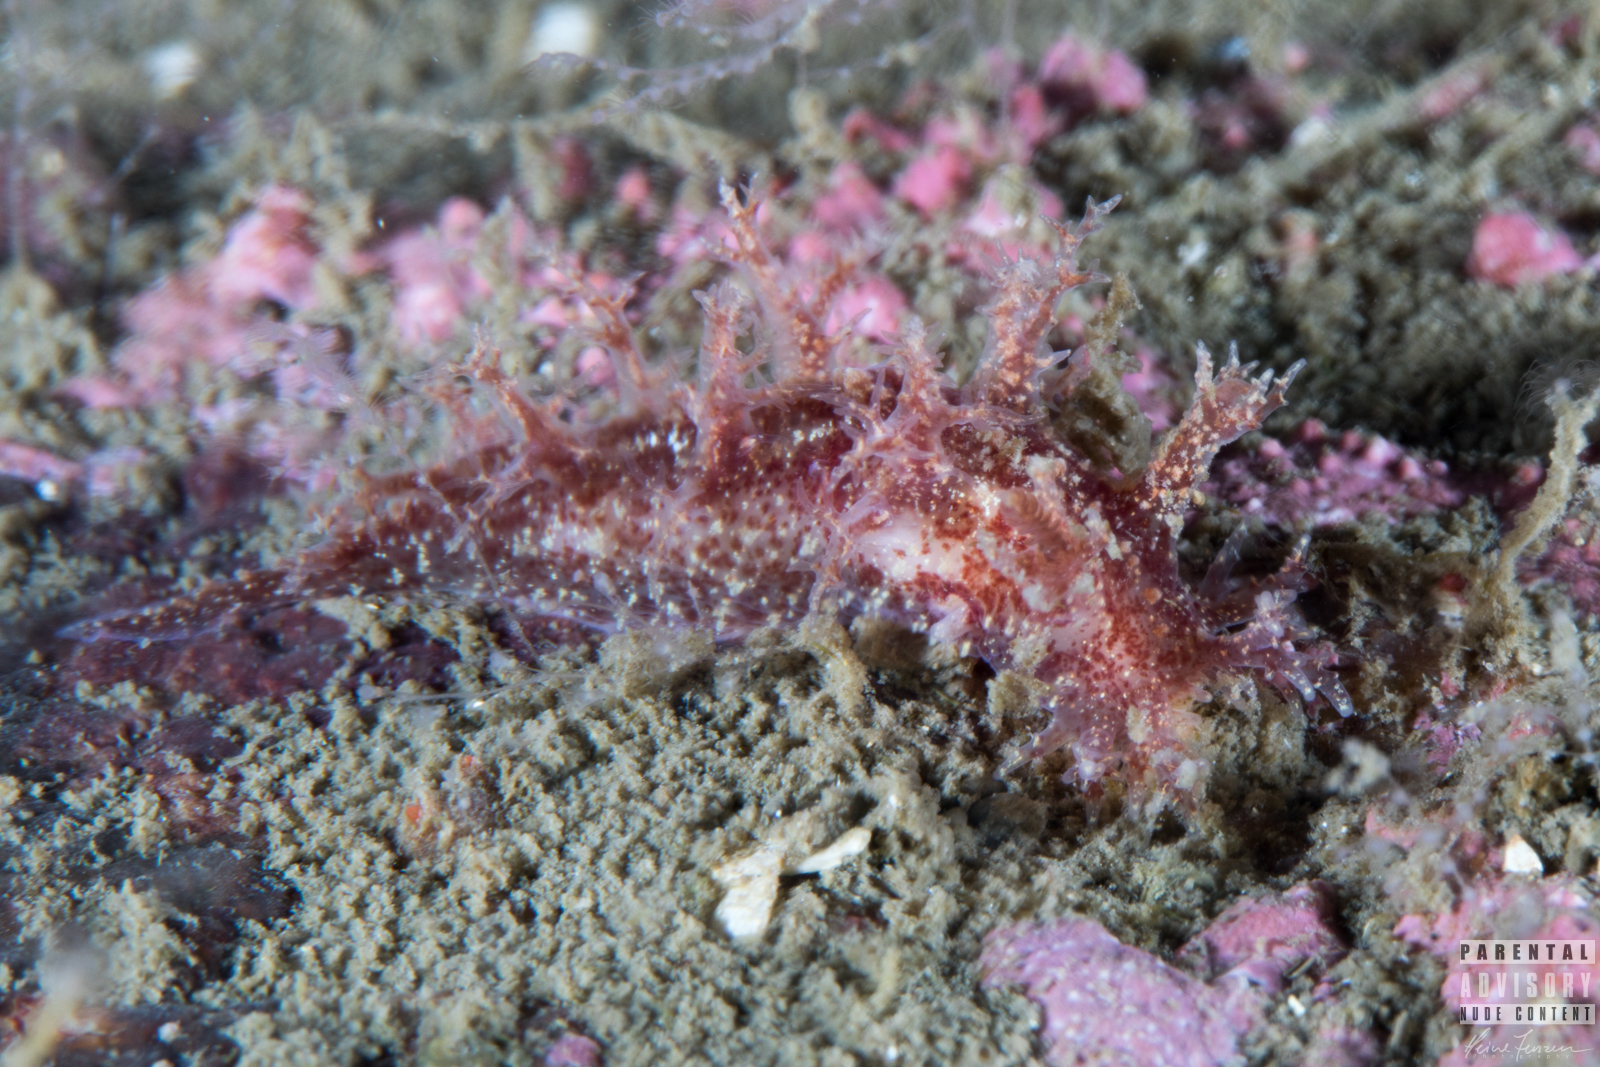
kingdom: Animalia
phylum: Mollusca
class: Gastropoda
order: Nudibranchia
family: Dendronotidae
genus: Dendronotus
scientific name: Dendronotus frondosus
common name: Bushy-backed nudibranch
